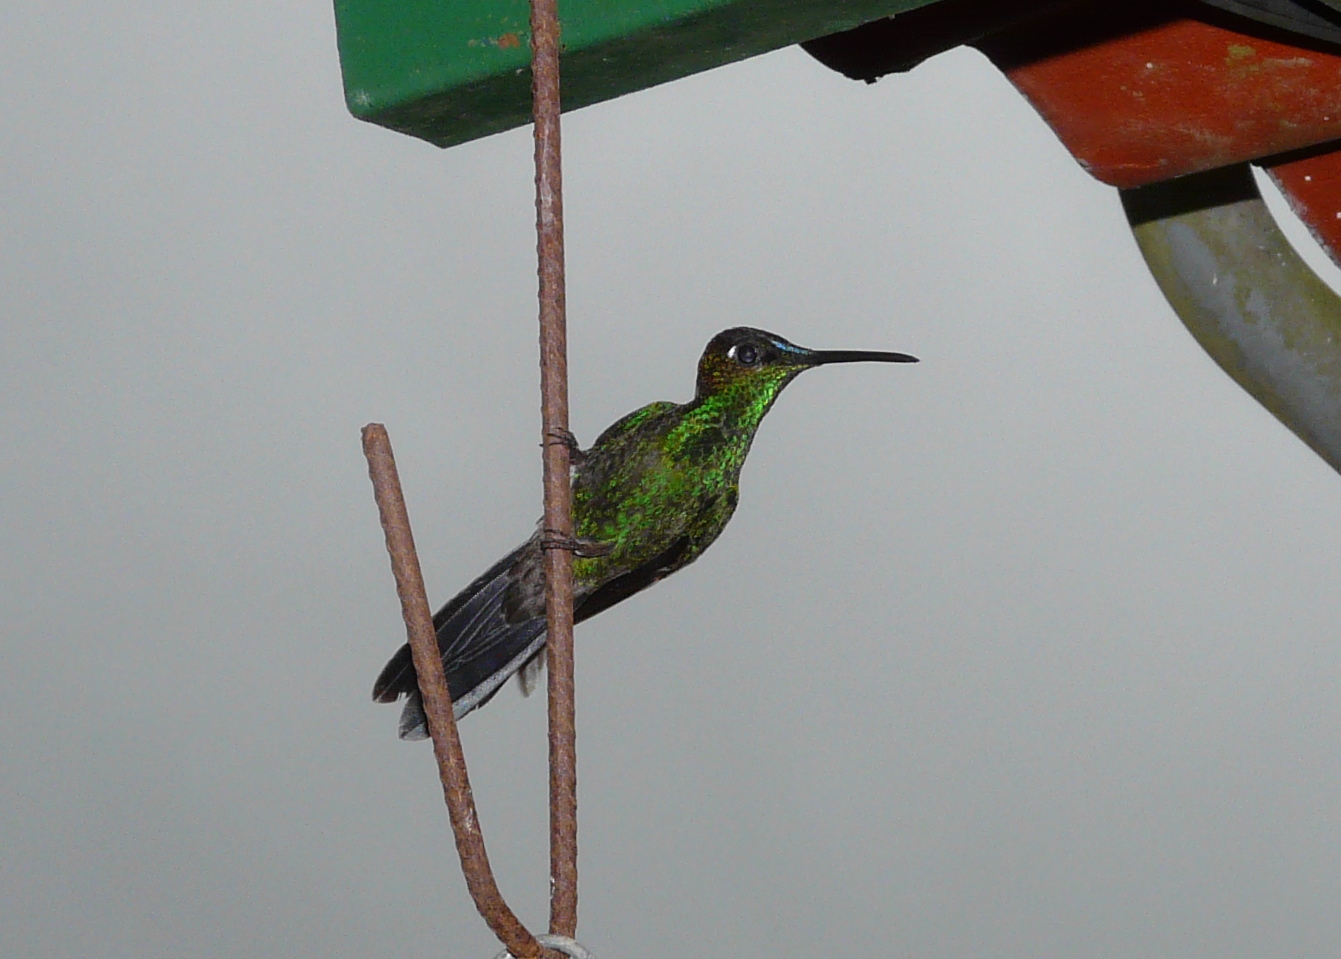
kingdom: Animalia
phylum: Chordata
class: Aves
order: Apodiformes
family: Trochilidae
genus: Heliodoxa
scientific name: Heliodoxa leadbeateri
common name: Violet-fronted brilliant
